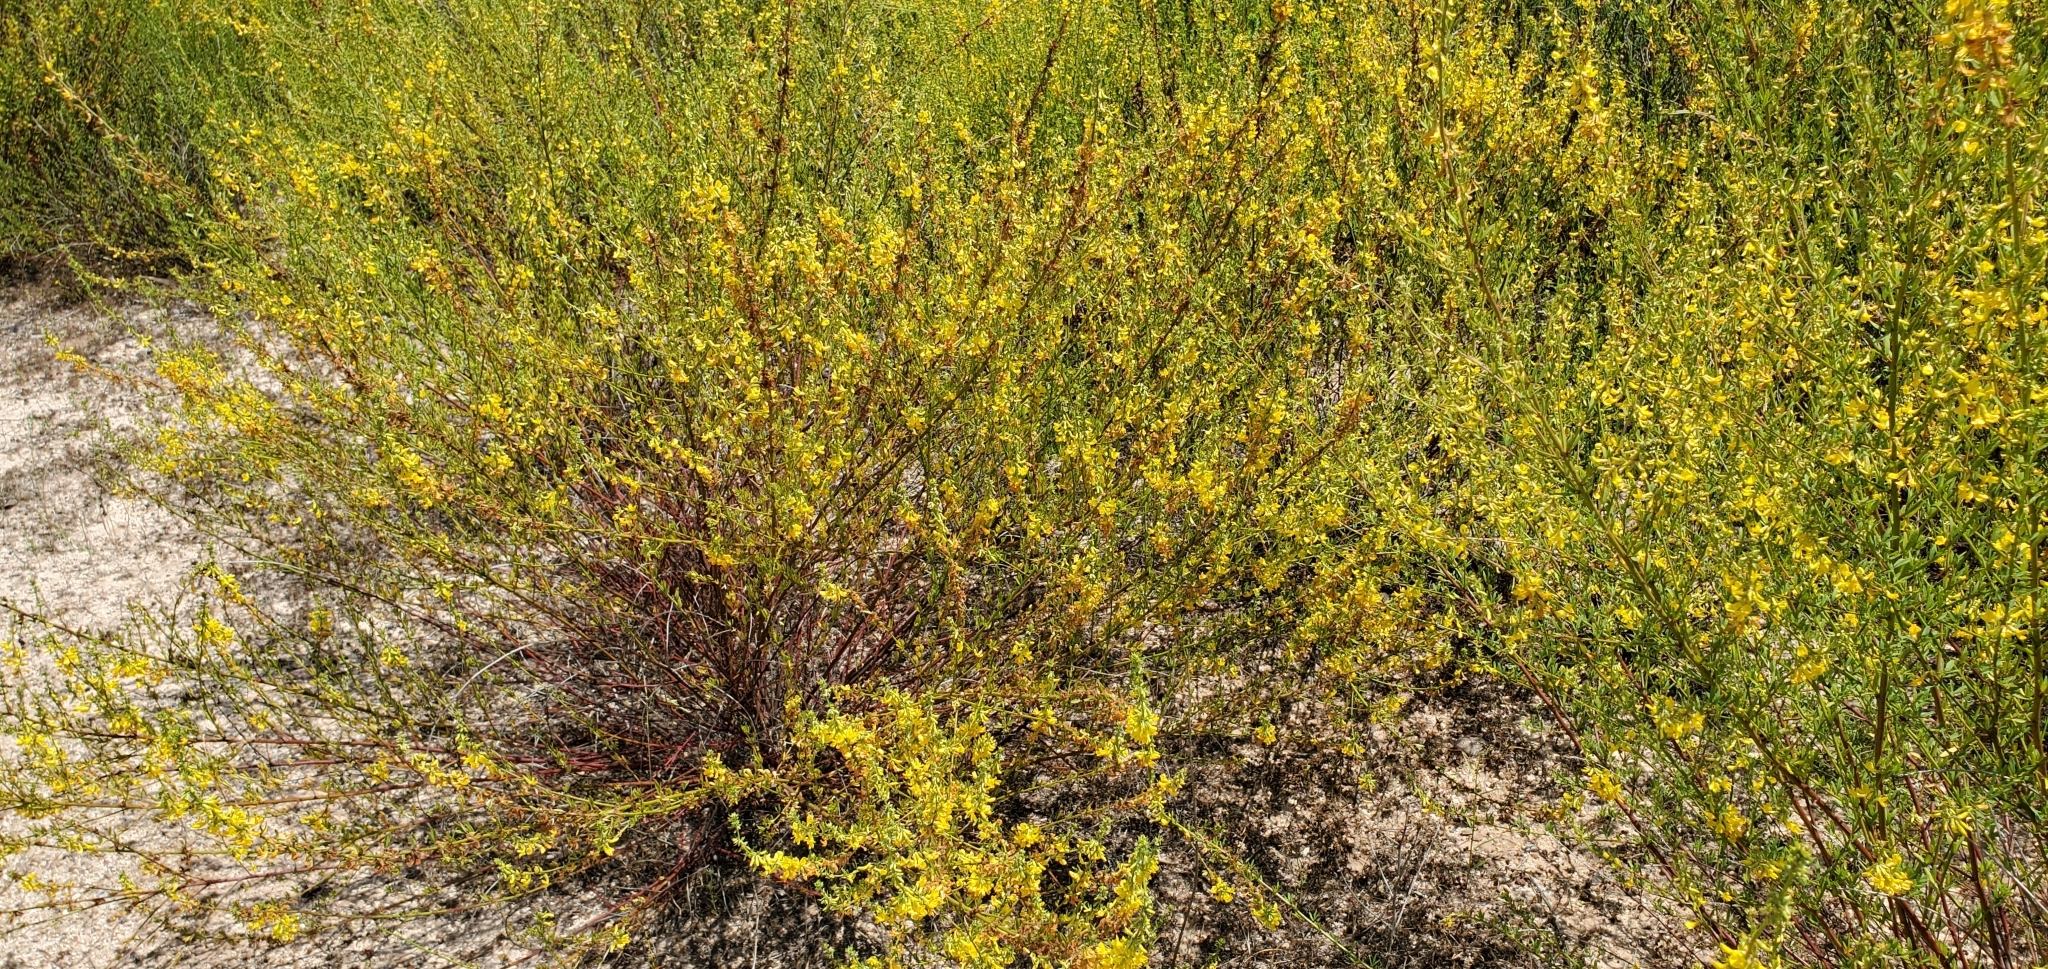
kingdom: Plantae
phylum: Tracheophyta
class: Magnoliopsida
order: Fabales
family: Fabaceae
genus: Acmispon
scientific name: Acmispon glaber
